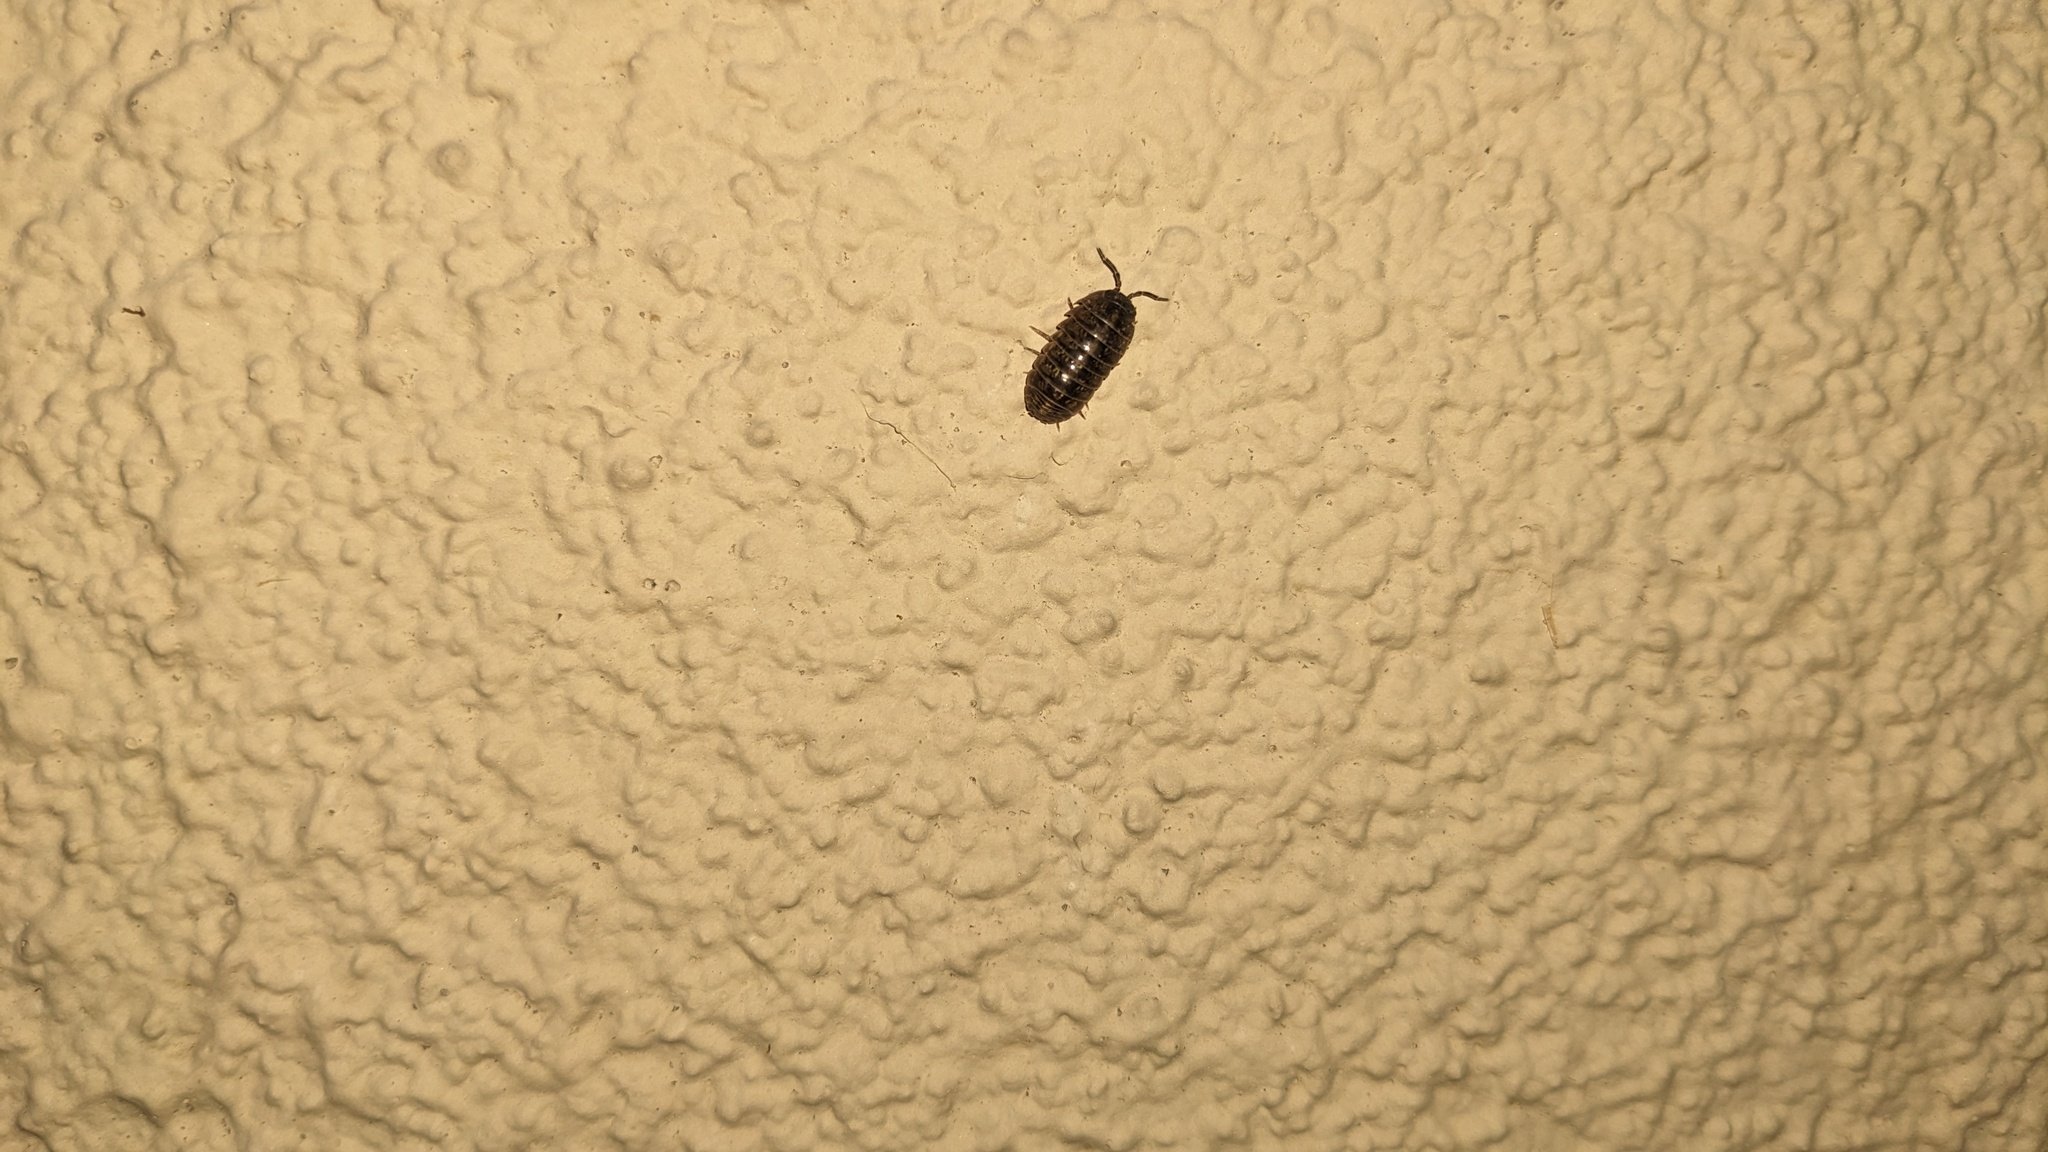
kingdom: Animalia
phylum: Arthropoda
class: Malacostraca
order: Isopoda
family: Armadillidiidae
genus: Armadillidium
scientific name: Armadillidium vulgare
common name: Common pill woodlouse
